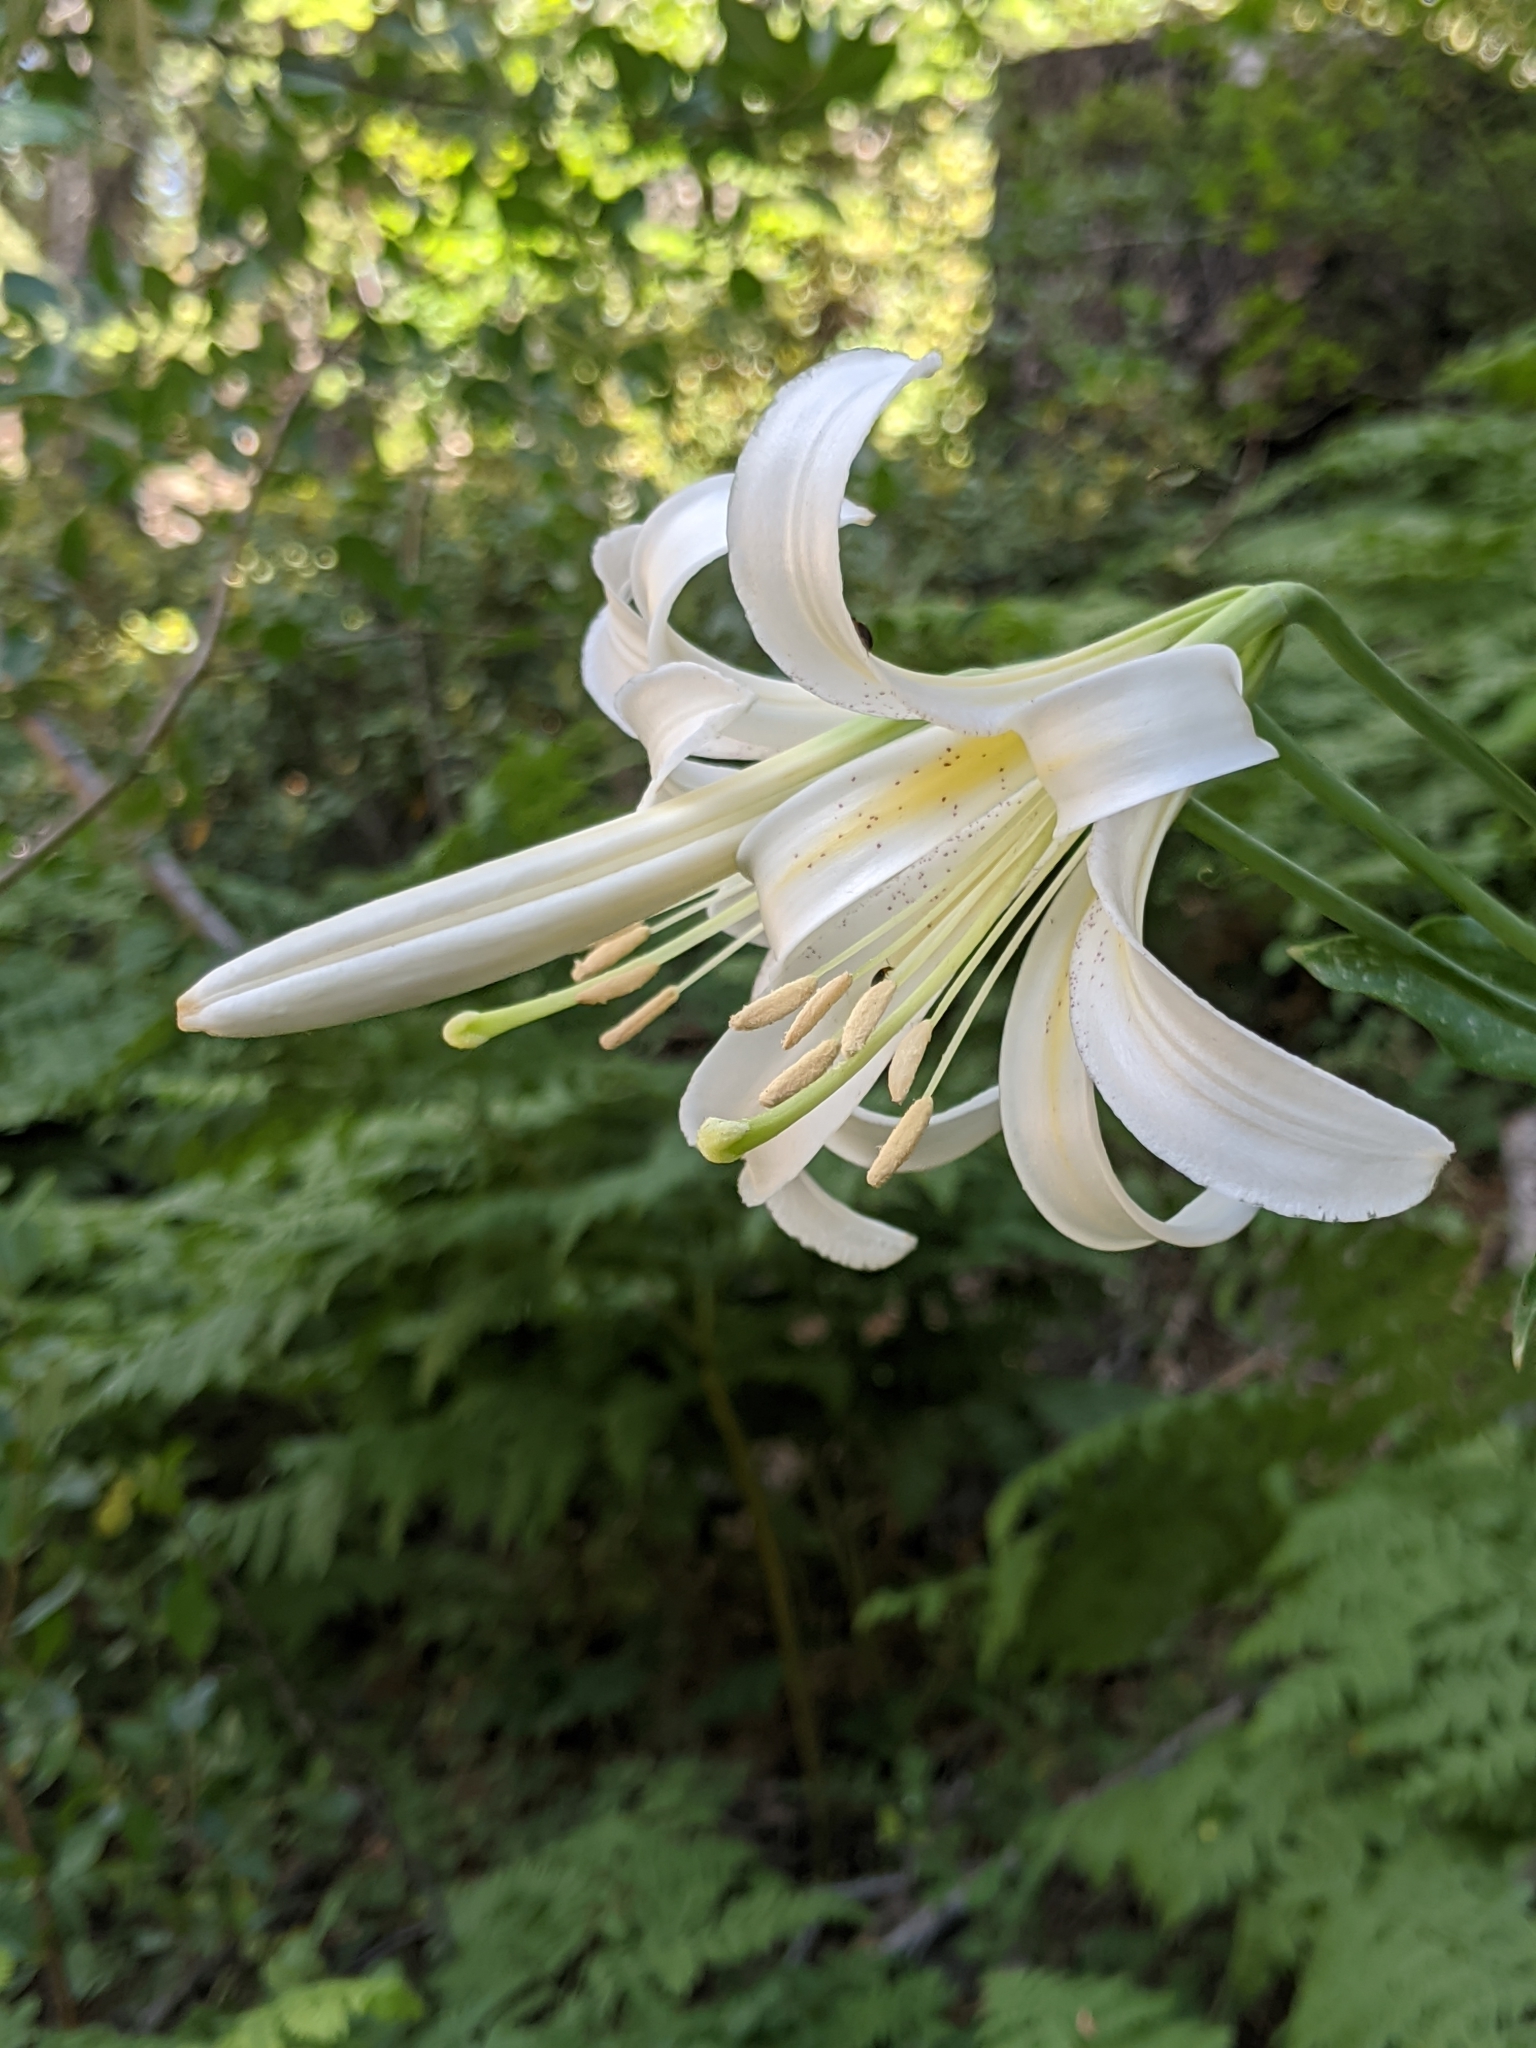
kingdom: Plantae
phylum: Tracheophyta
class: Liliopsida
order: Liliales
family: Liliaceae
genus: Lilium
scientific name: Lilium washingtonianum
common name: Washington lily
